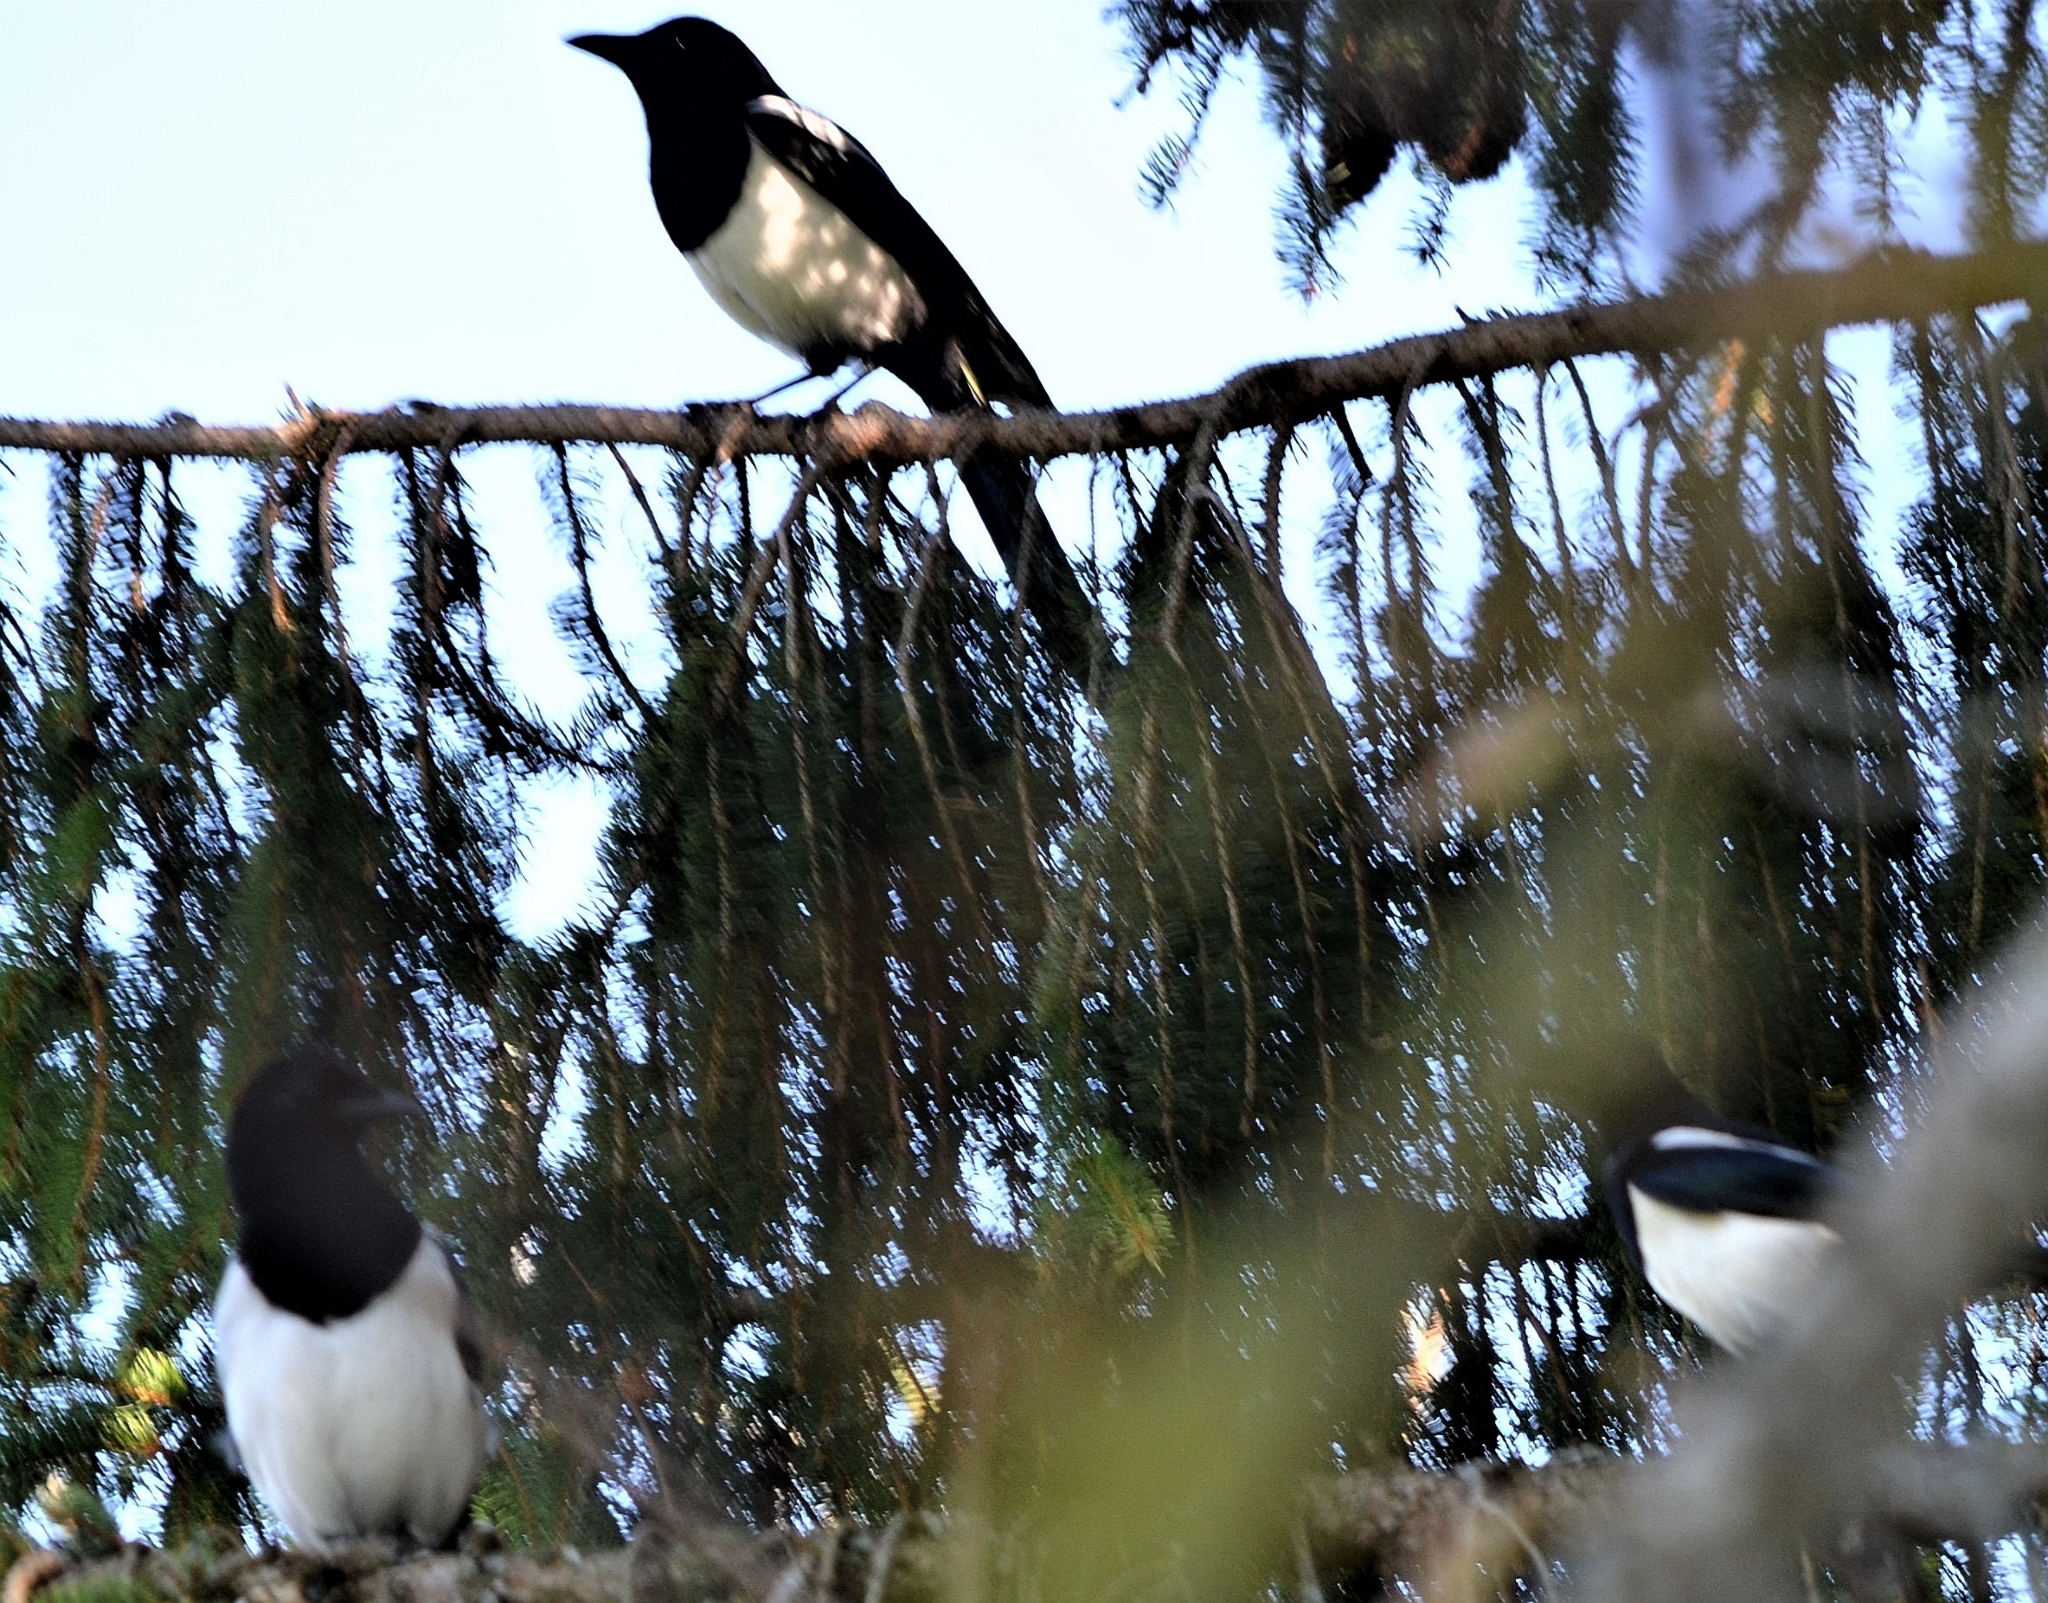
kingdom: Animalia
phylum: Chordata
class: Aves
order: Passeriformes
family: Corvidae
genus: Pica
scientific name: Pica pica
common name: Eurasian magpie
